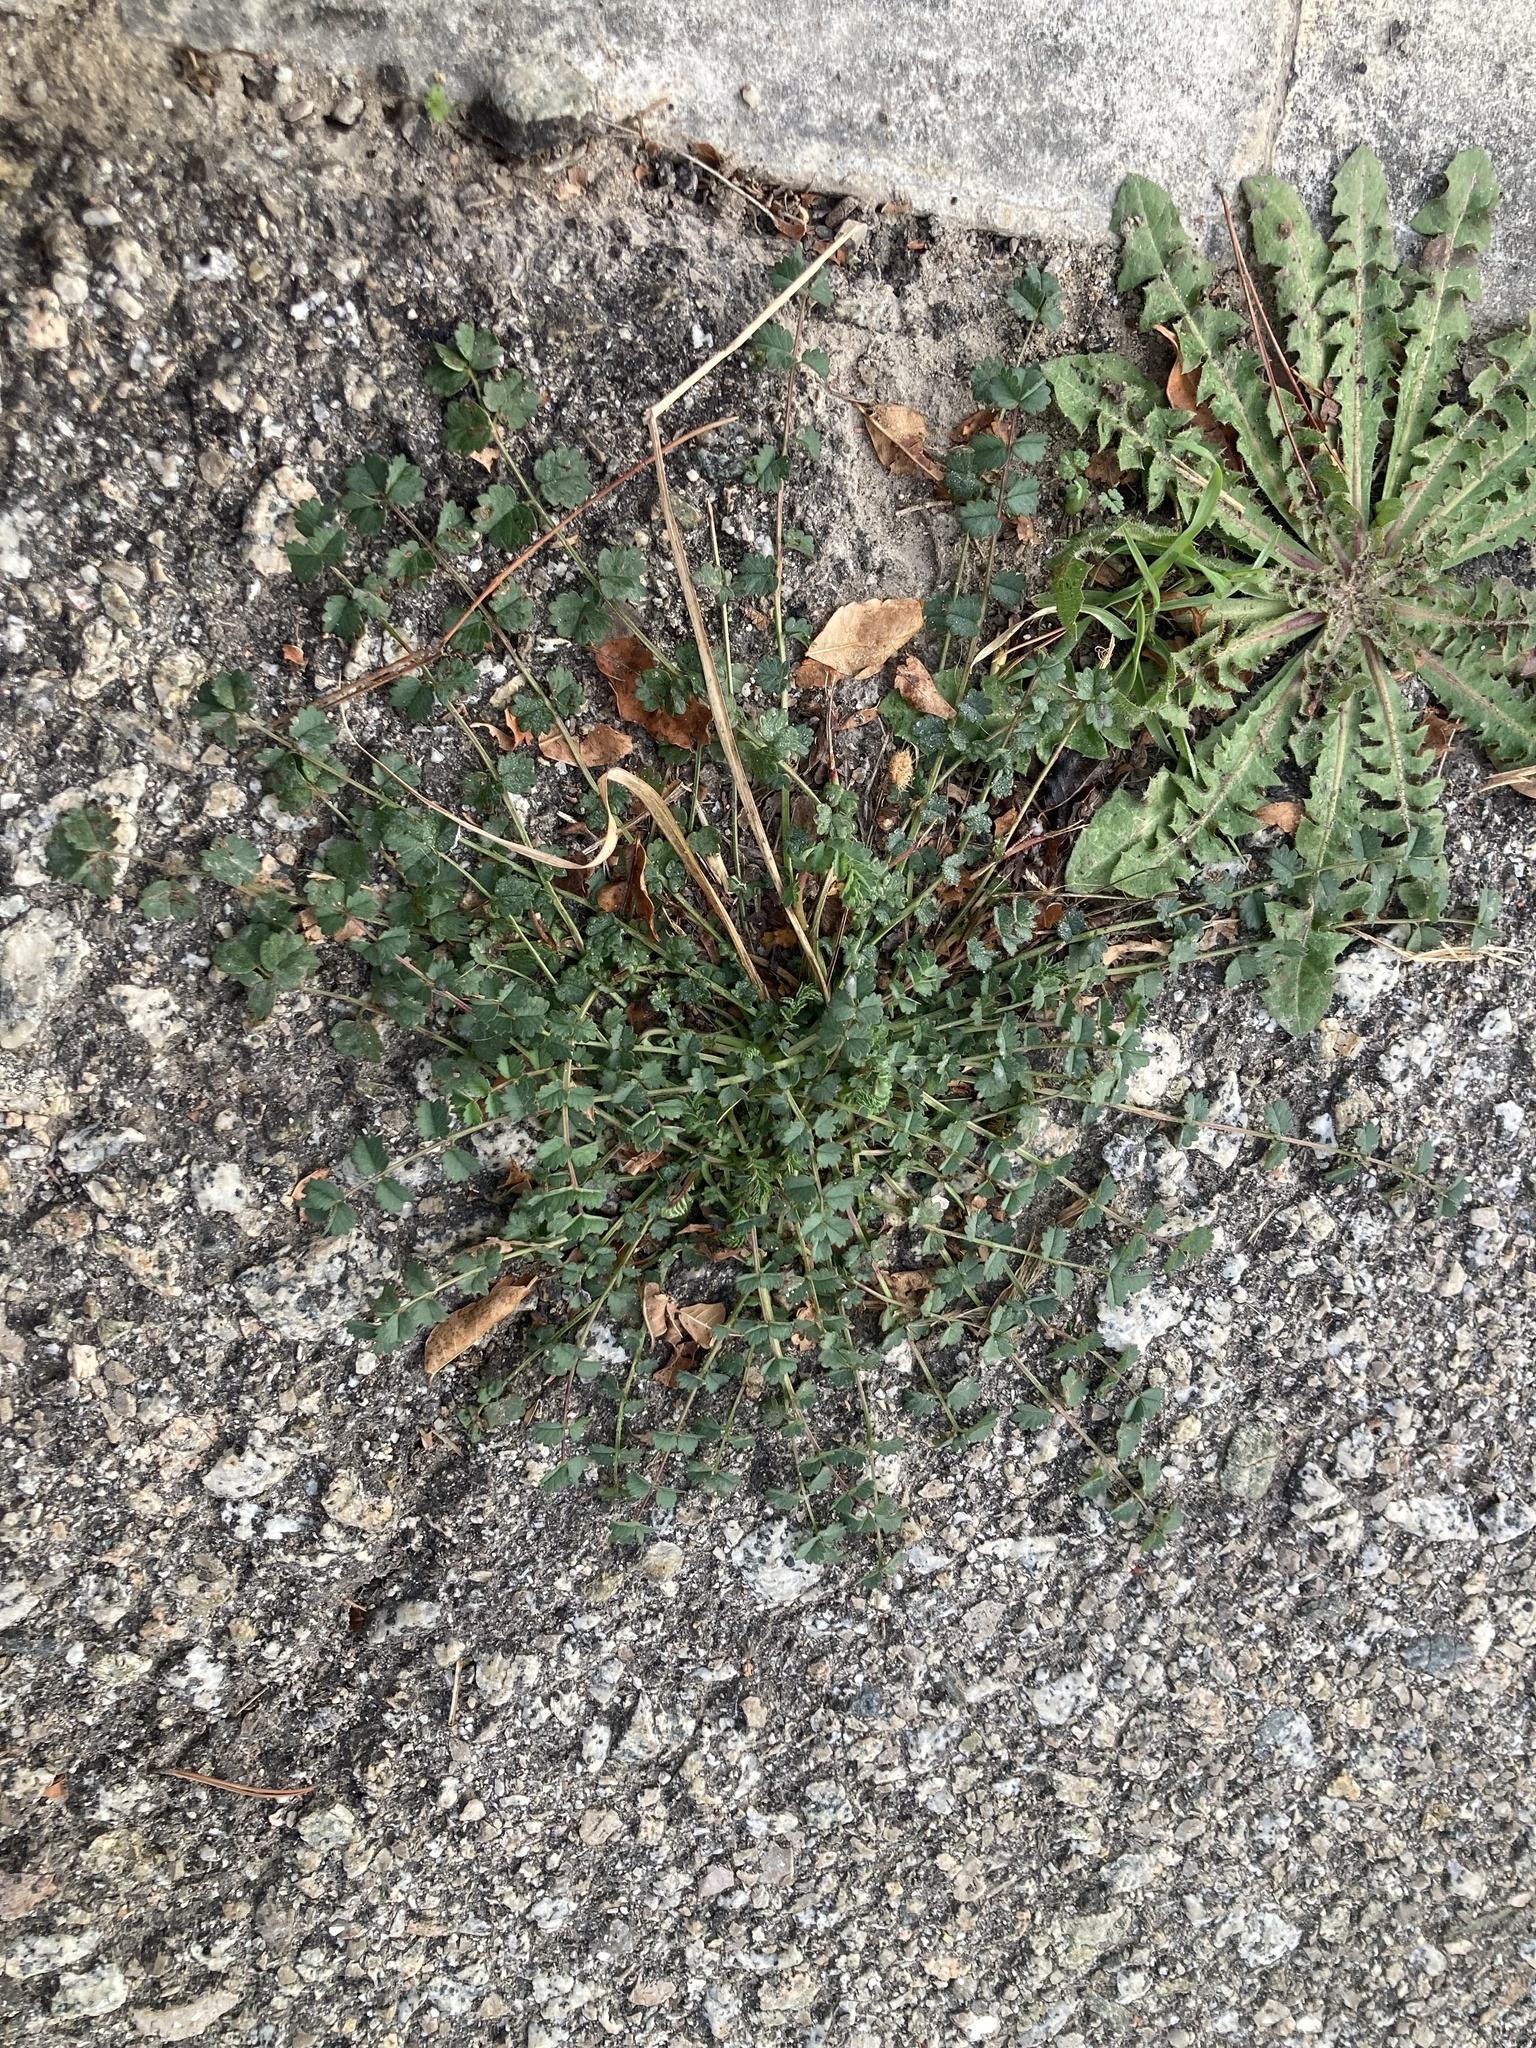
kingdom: Plantae
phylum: Tracheophyta
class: Magnoliopsida
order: Rosales
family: Rosaceae
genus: Poterium
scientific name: Poterium sanguisorba
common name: Salad burnet
